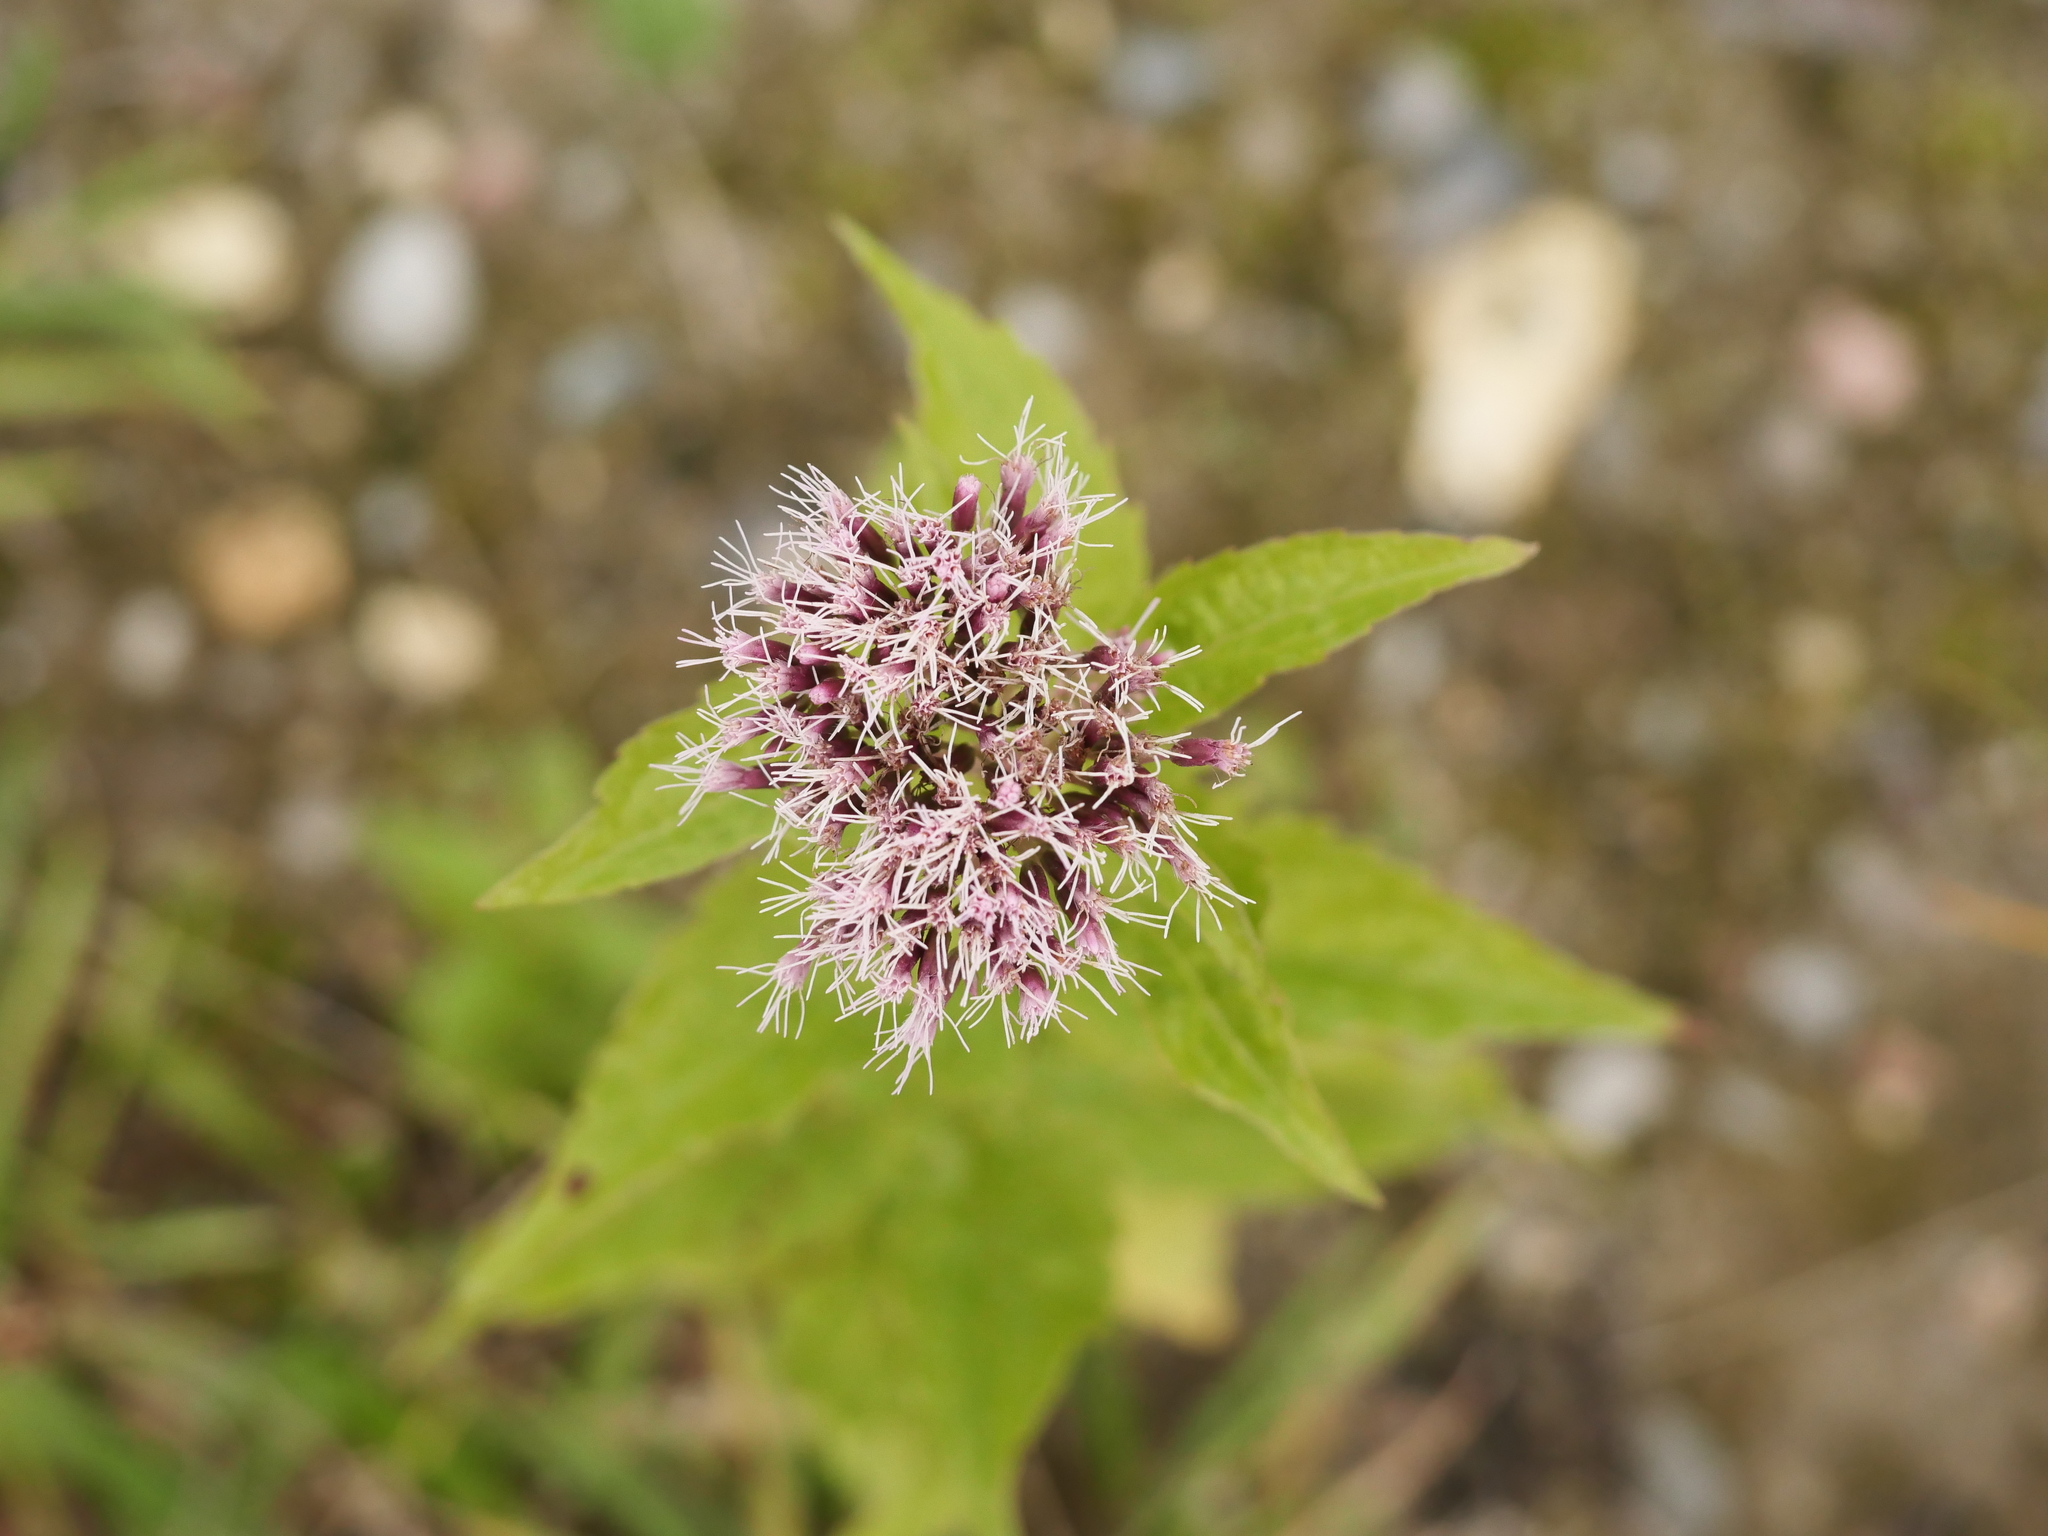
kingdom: Plantae
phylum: Tracheophyta
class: Magnoliopsida
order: Asterales
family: Asteraceae
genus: Eupatorium
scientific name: Eupatorium cannabinum
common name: Hemp-agrimony
